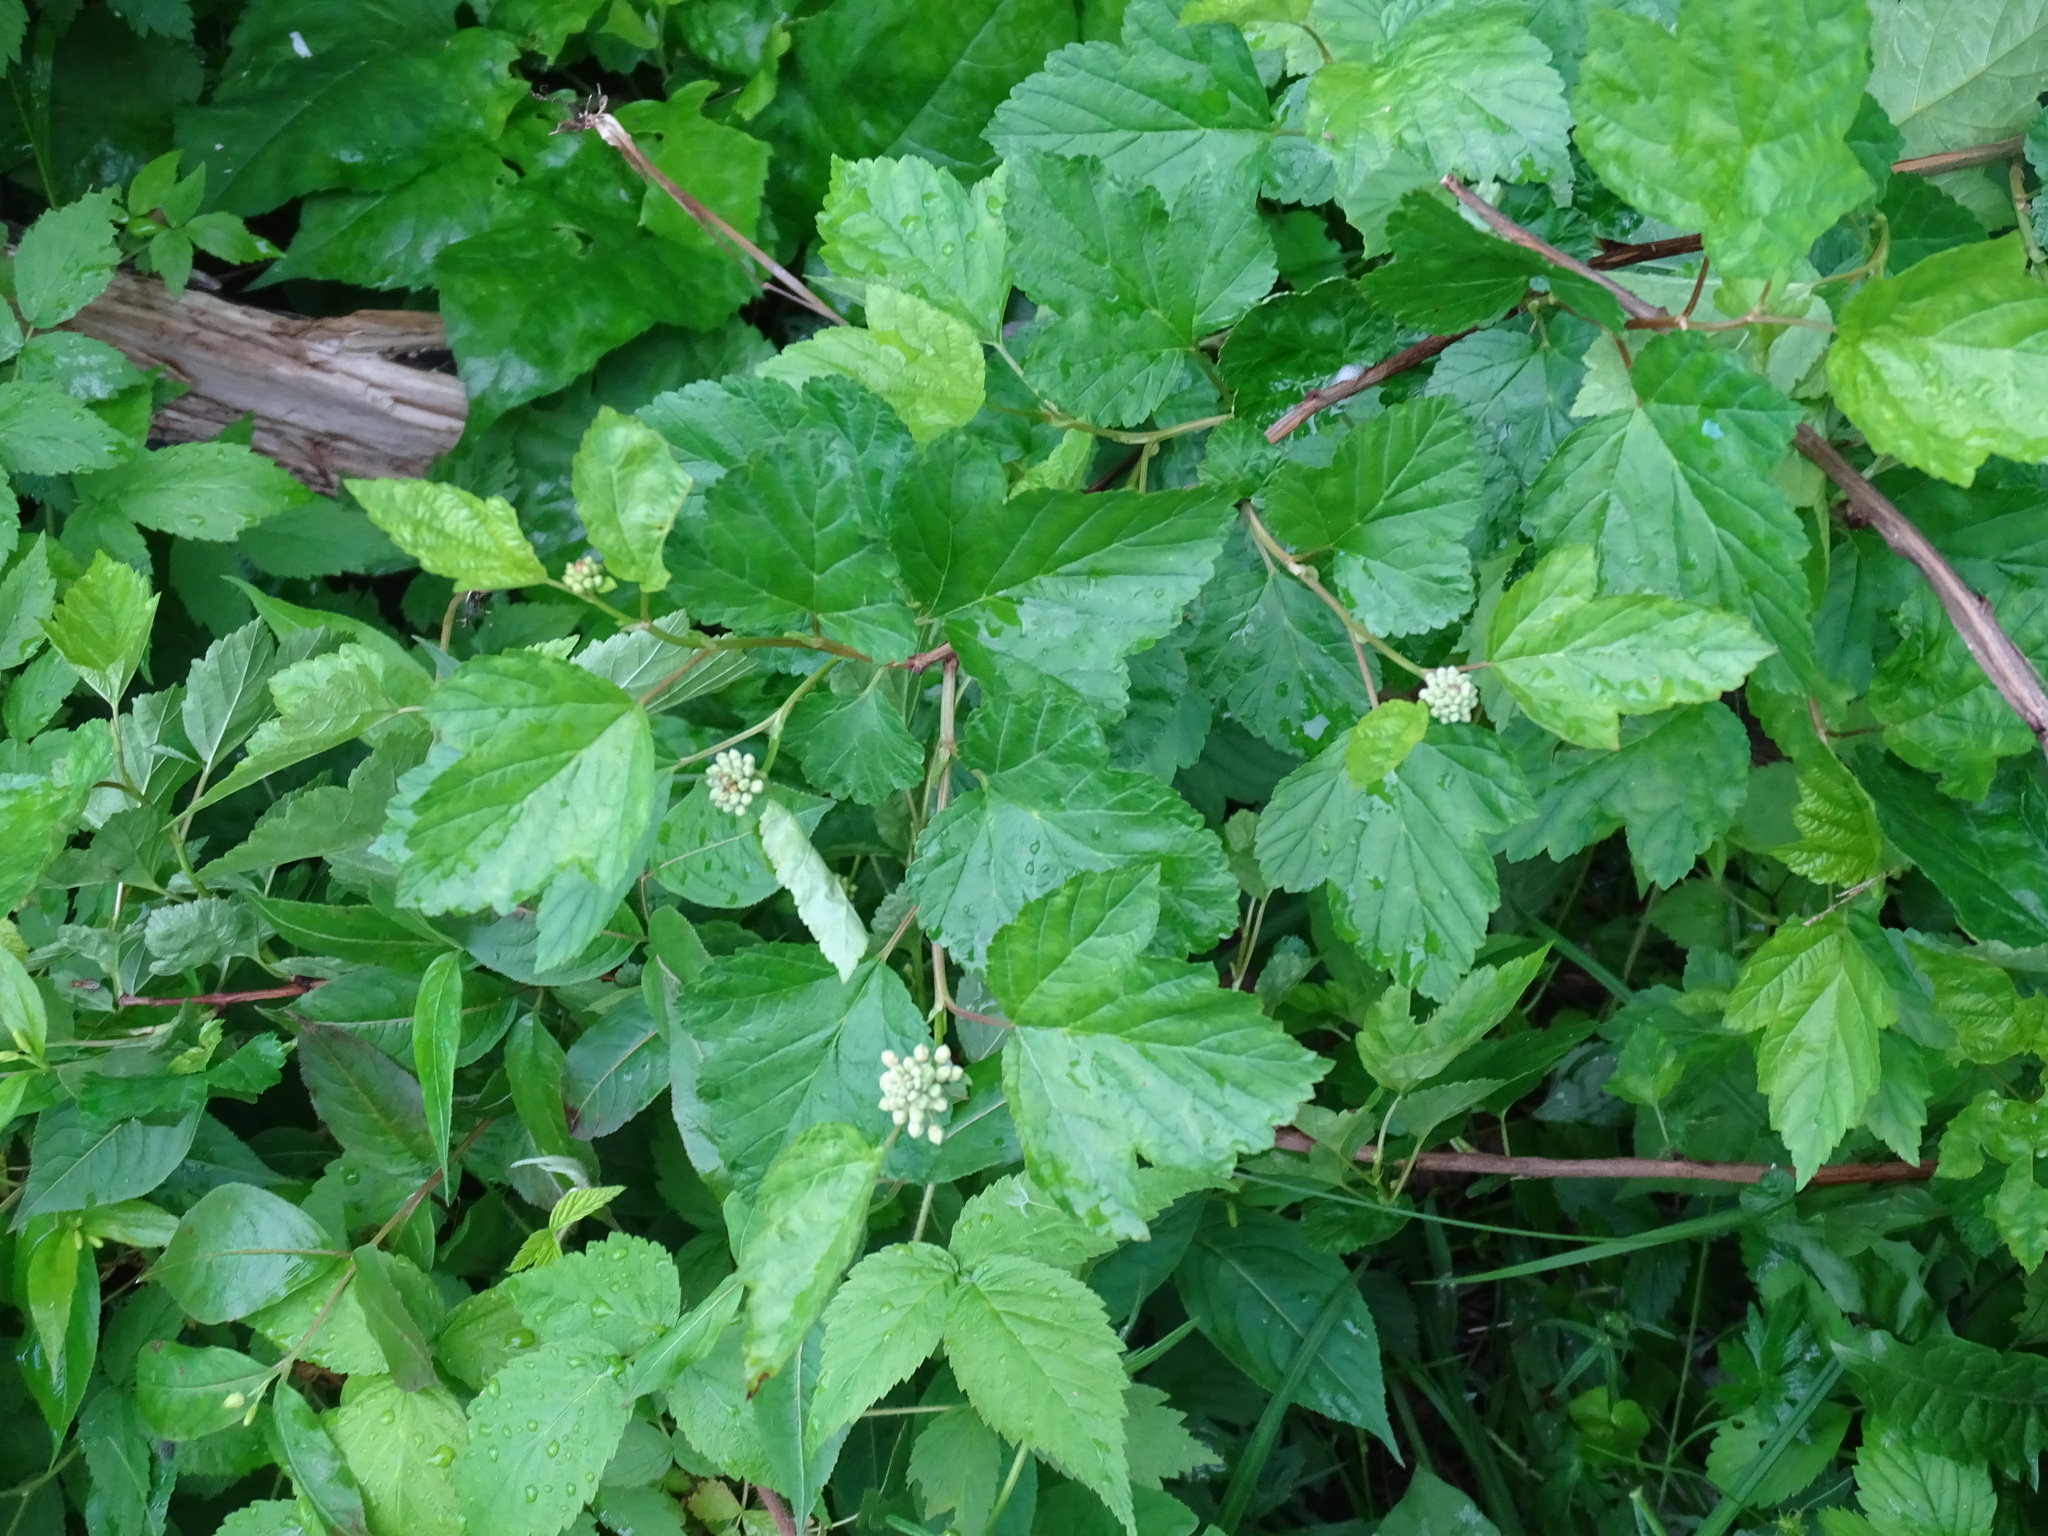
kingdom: Plantae
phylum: Tracheophyta
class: Magnoliopsida
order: Rosales
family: Rosaceae
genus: Physocarpus
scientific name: Physocarpus opulifolius
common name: Ninebark
